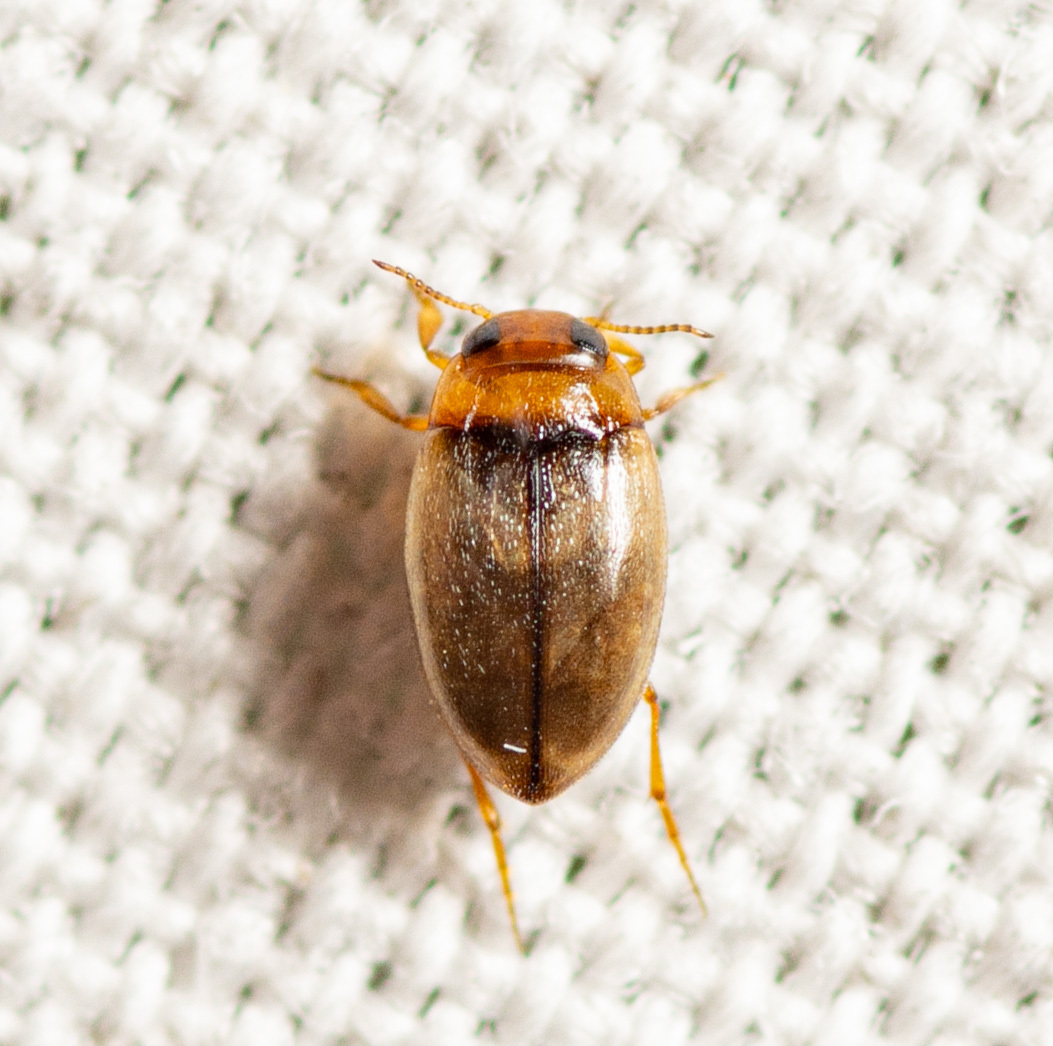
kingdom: Animalia
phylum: Arthropoda
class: Insecta
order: Coleoptera
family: Dytiscidae
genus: Uvarus
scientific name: Uvarus
